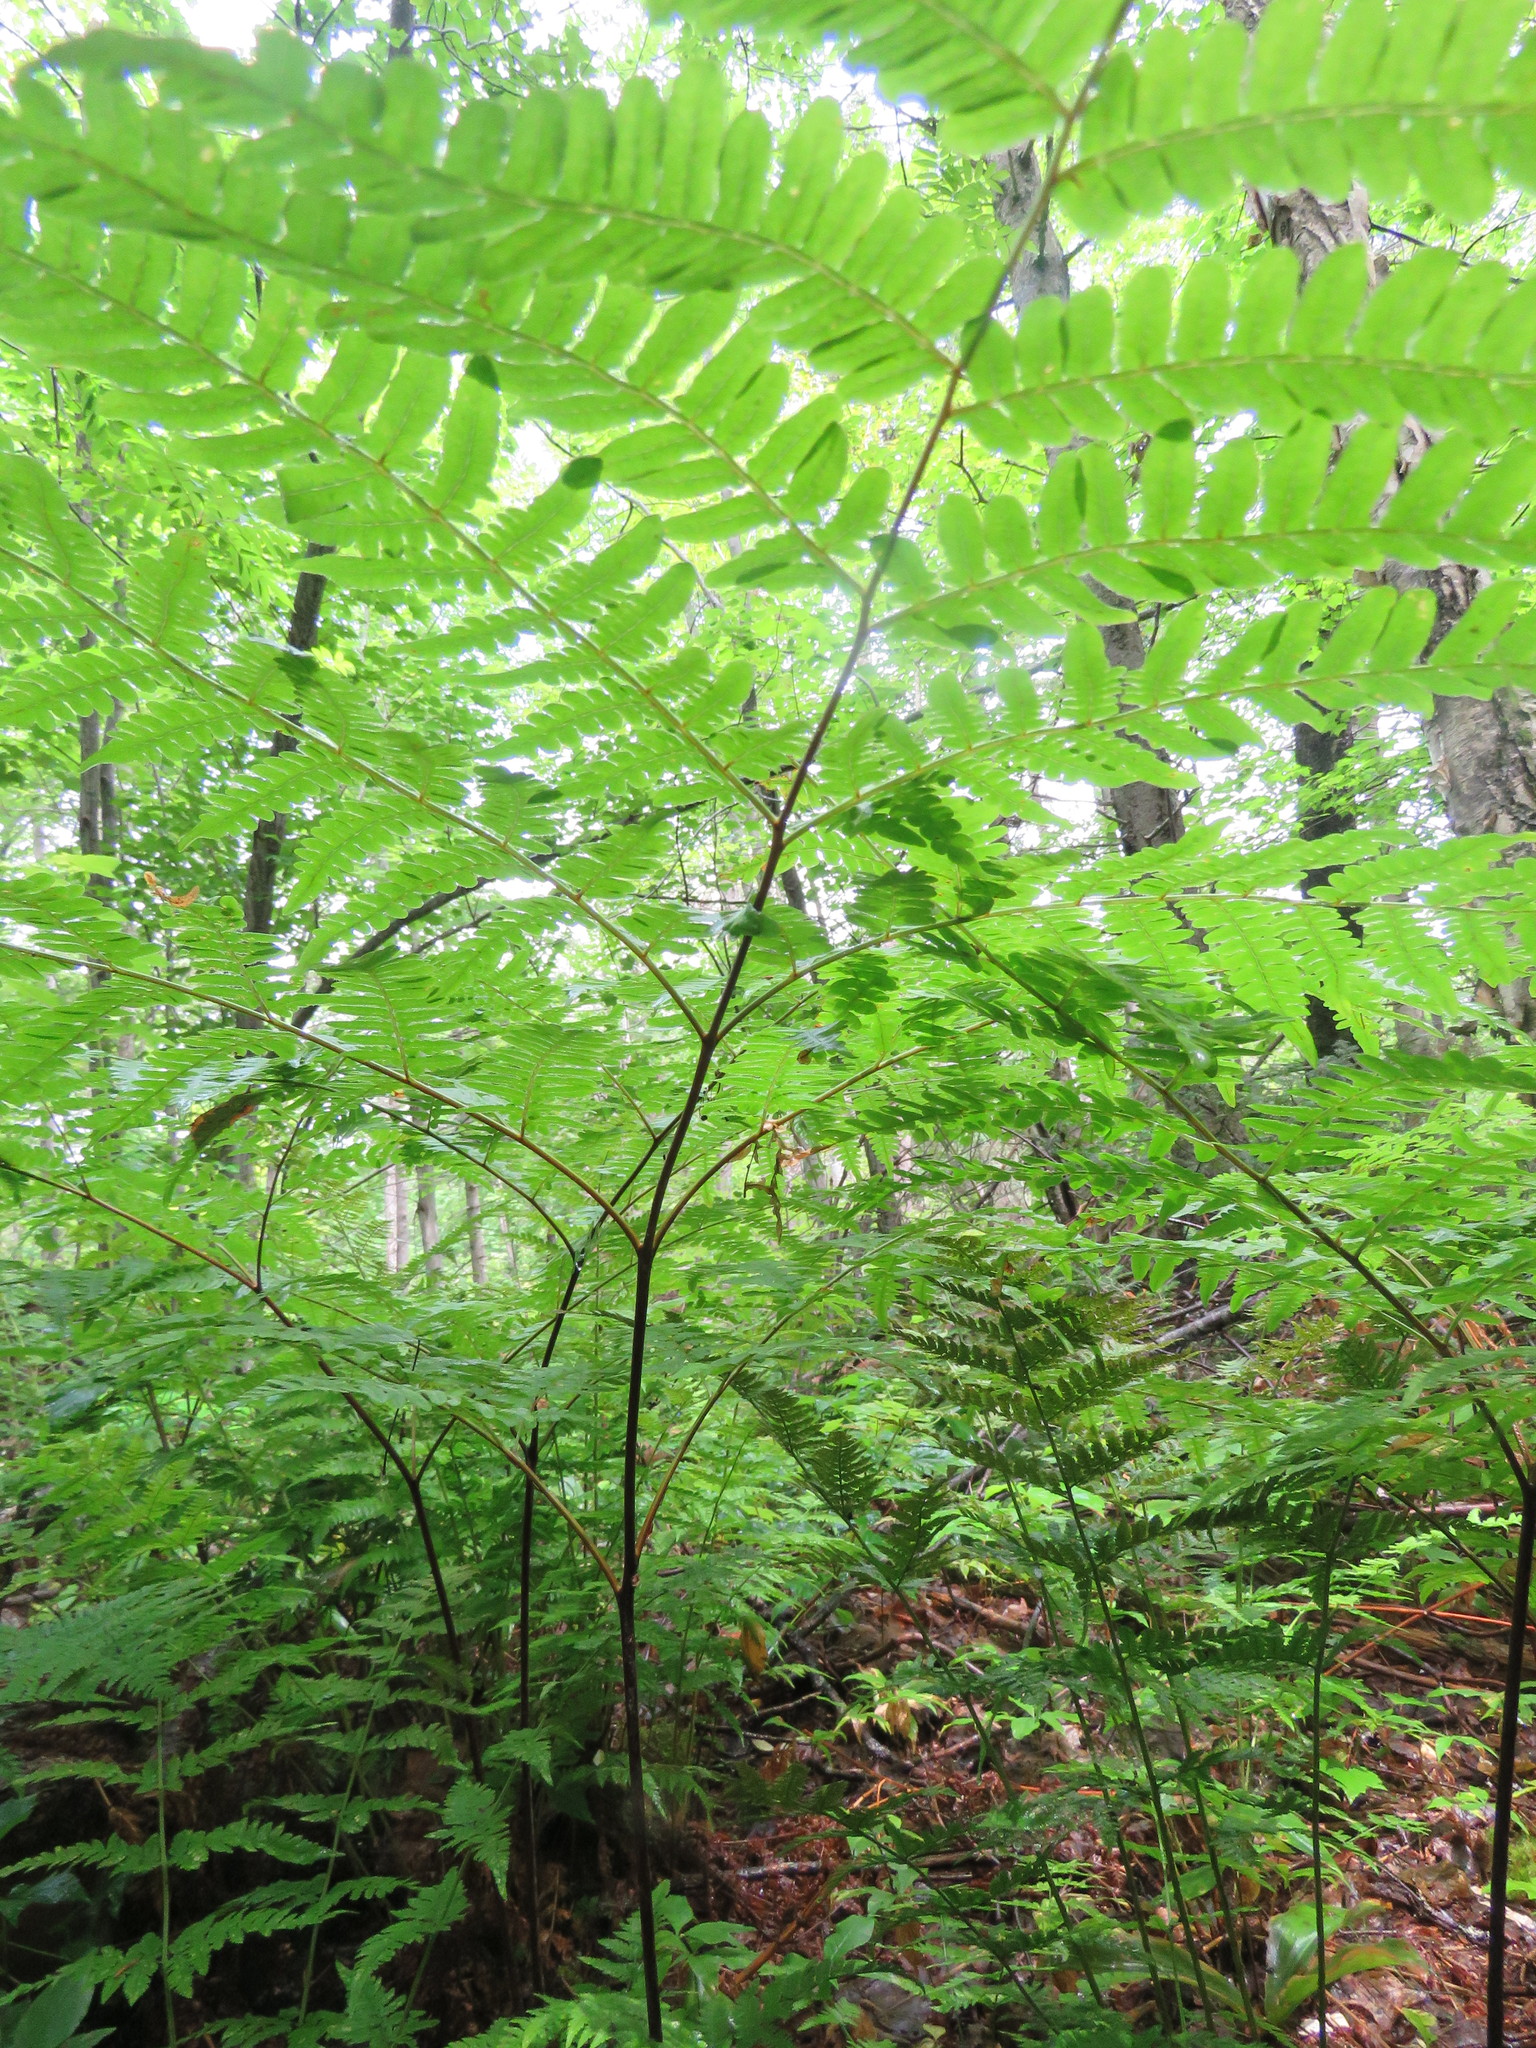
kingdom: Plantae
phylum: Tracheophyta
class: Polypodiopsida
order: Polypodiales
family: Dennstaedtiaceae
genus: Pteridium
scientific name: Pteridium aquilinum
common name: Bracken
